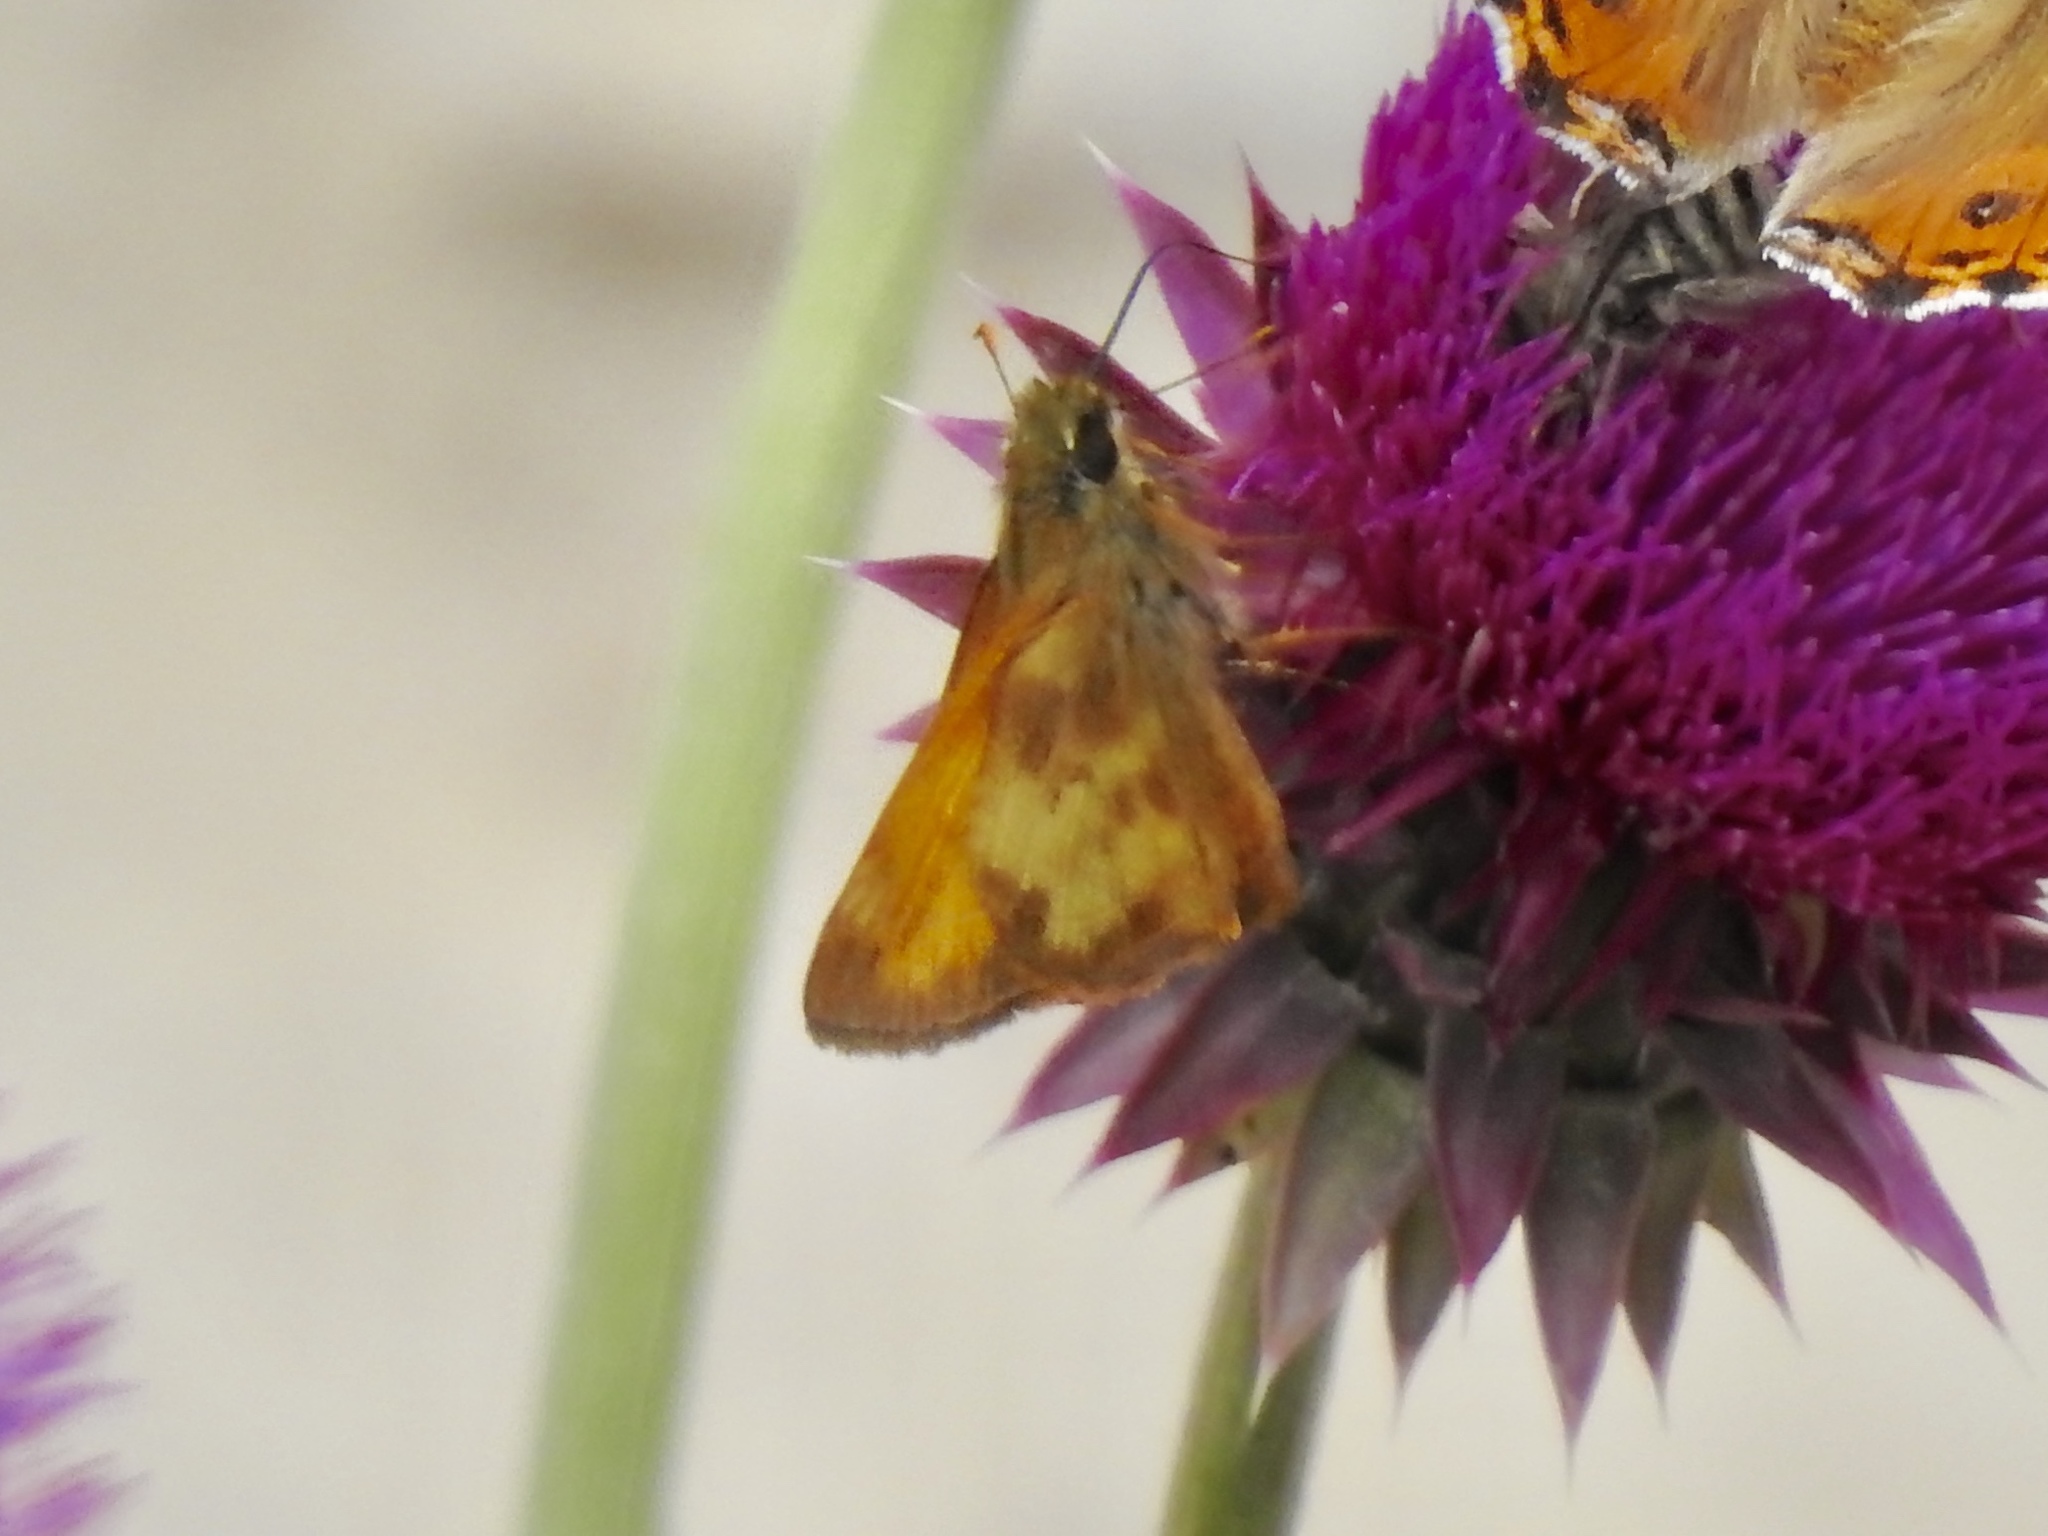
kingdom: Animalia
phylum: Arthropoda
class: Insecta
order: Lepidoptera
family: Hesperiidae
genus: Lon
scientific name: Lon taxiles
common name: Taxiles skipper
